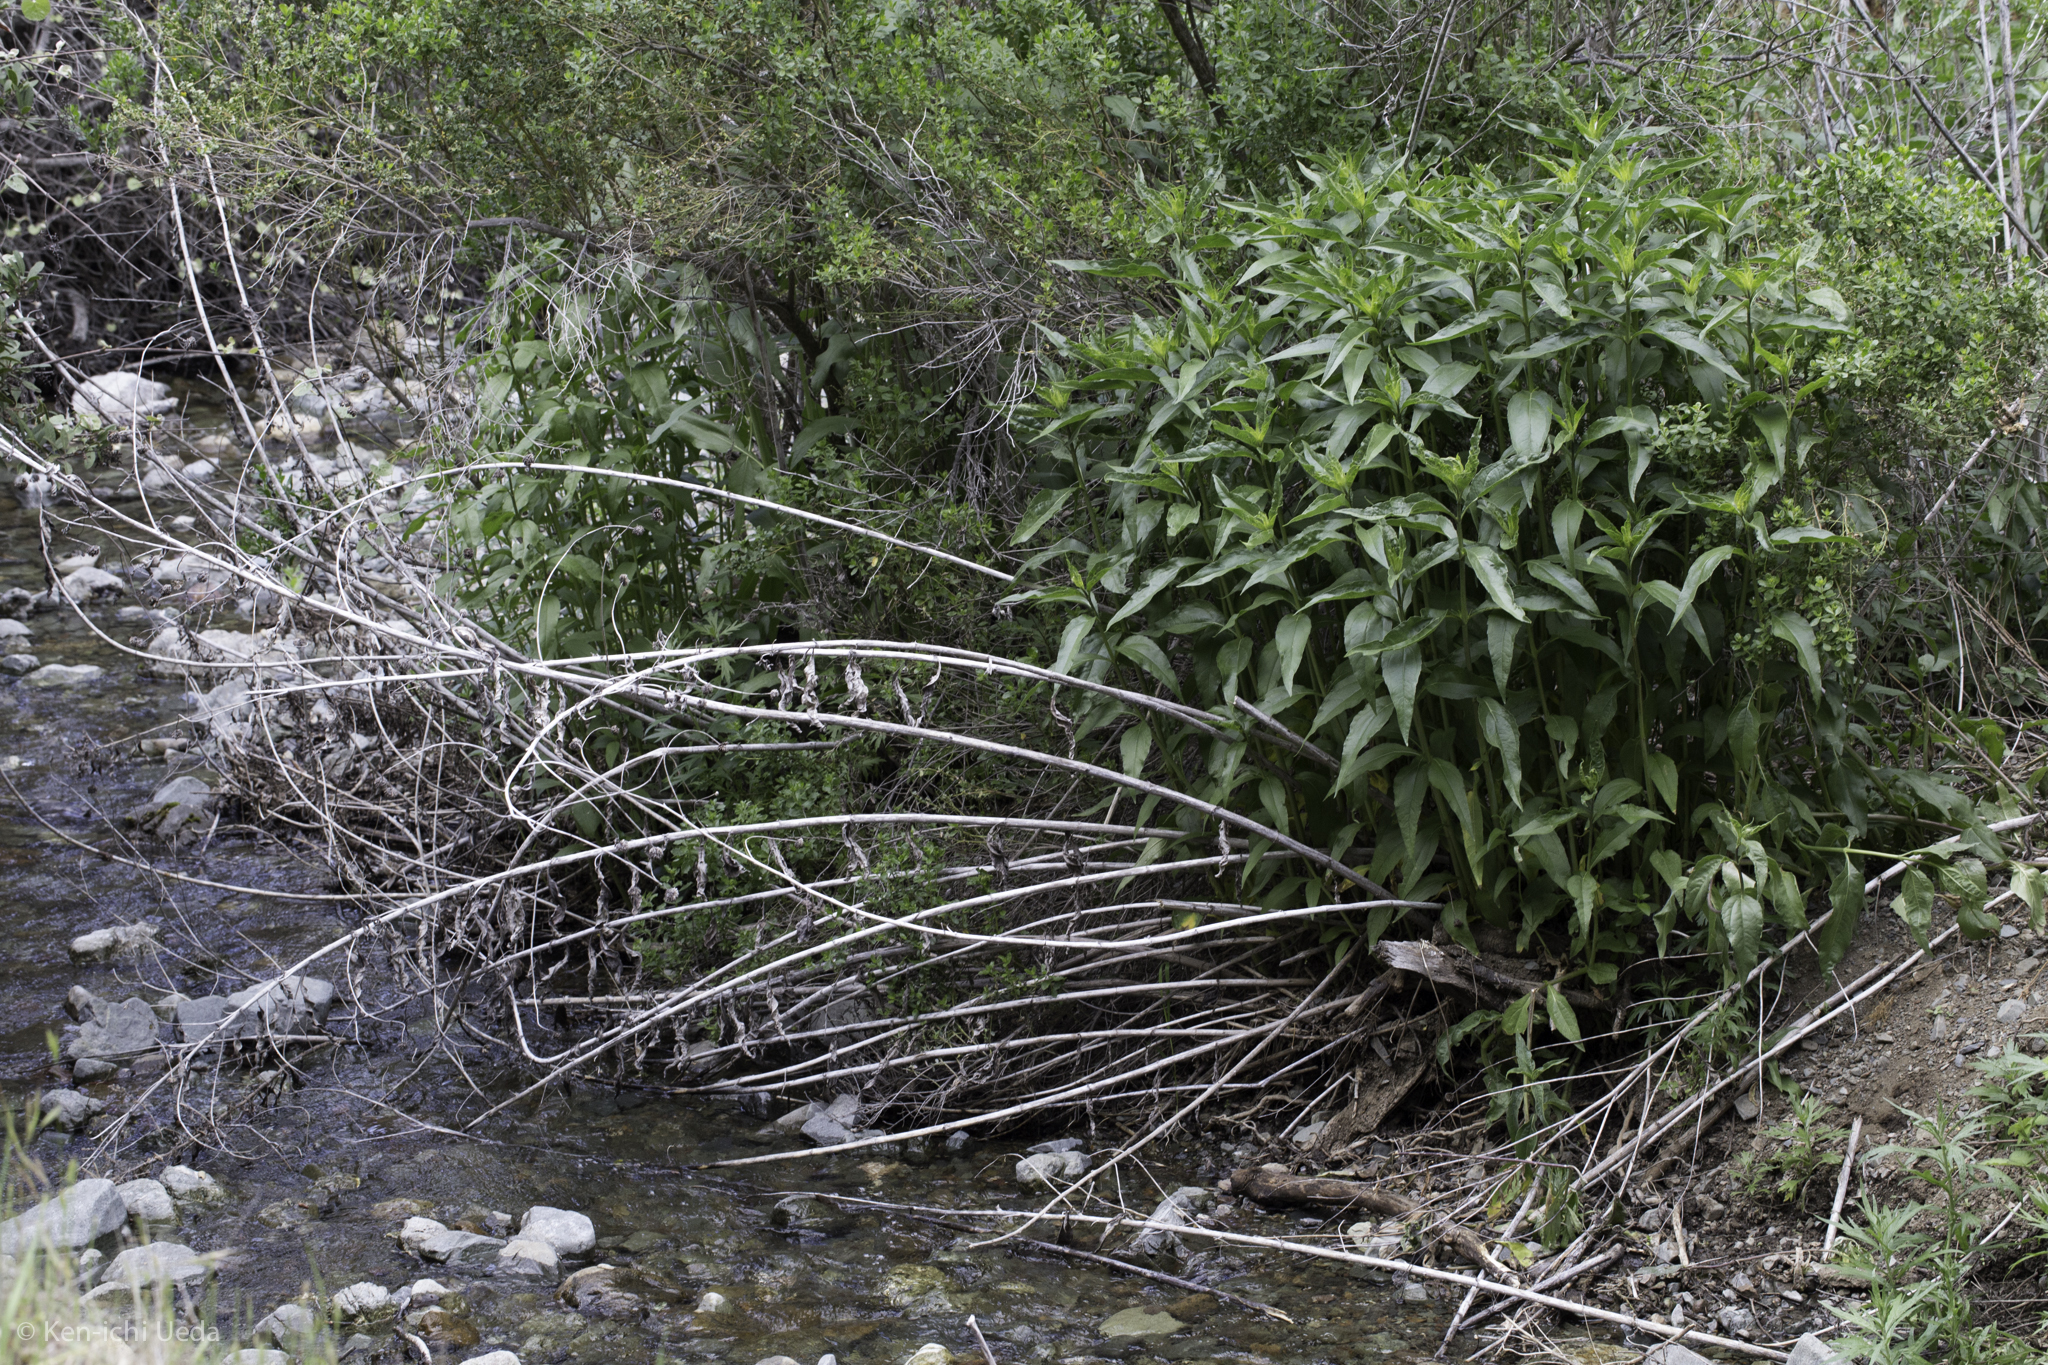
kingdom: Plantae
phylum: Tracheophyta
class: Magnoliopsida
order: Asterales
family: Asteraceae
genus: Helianthus
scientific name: Helianthus californicus
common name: California sunflower
